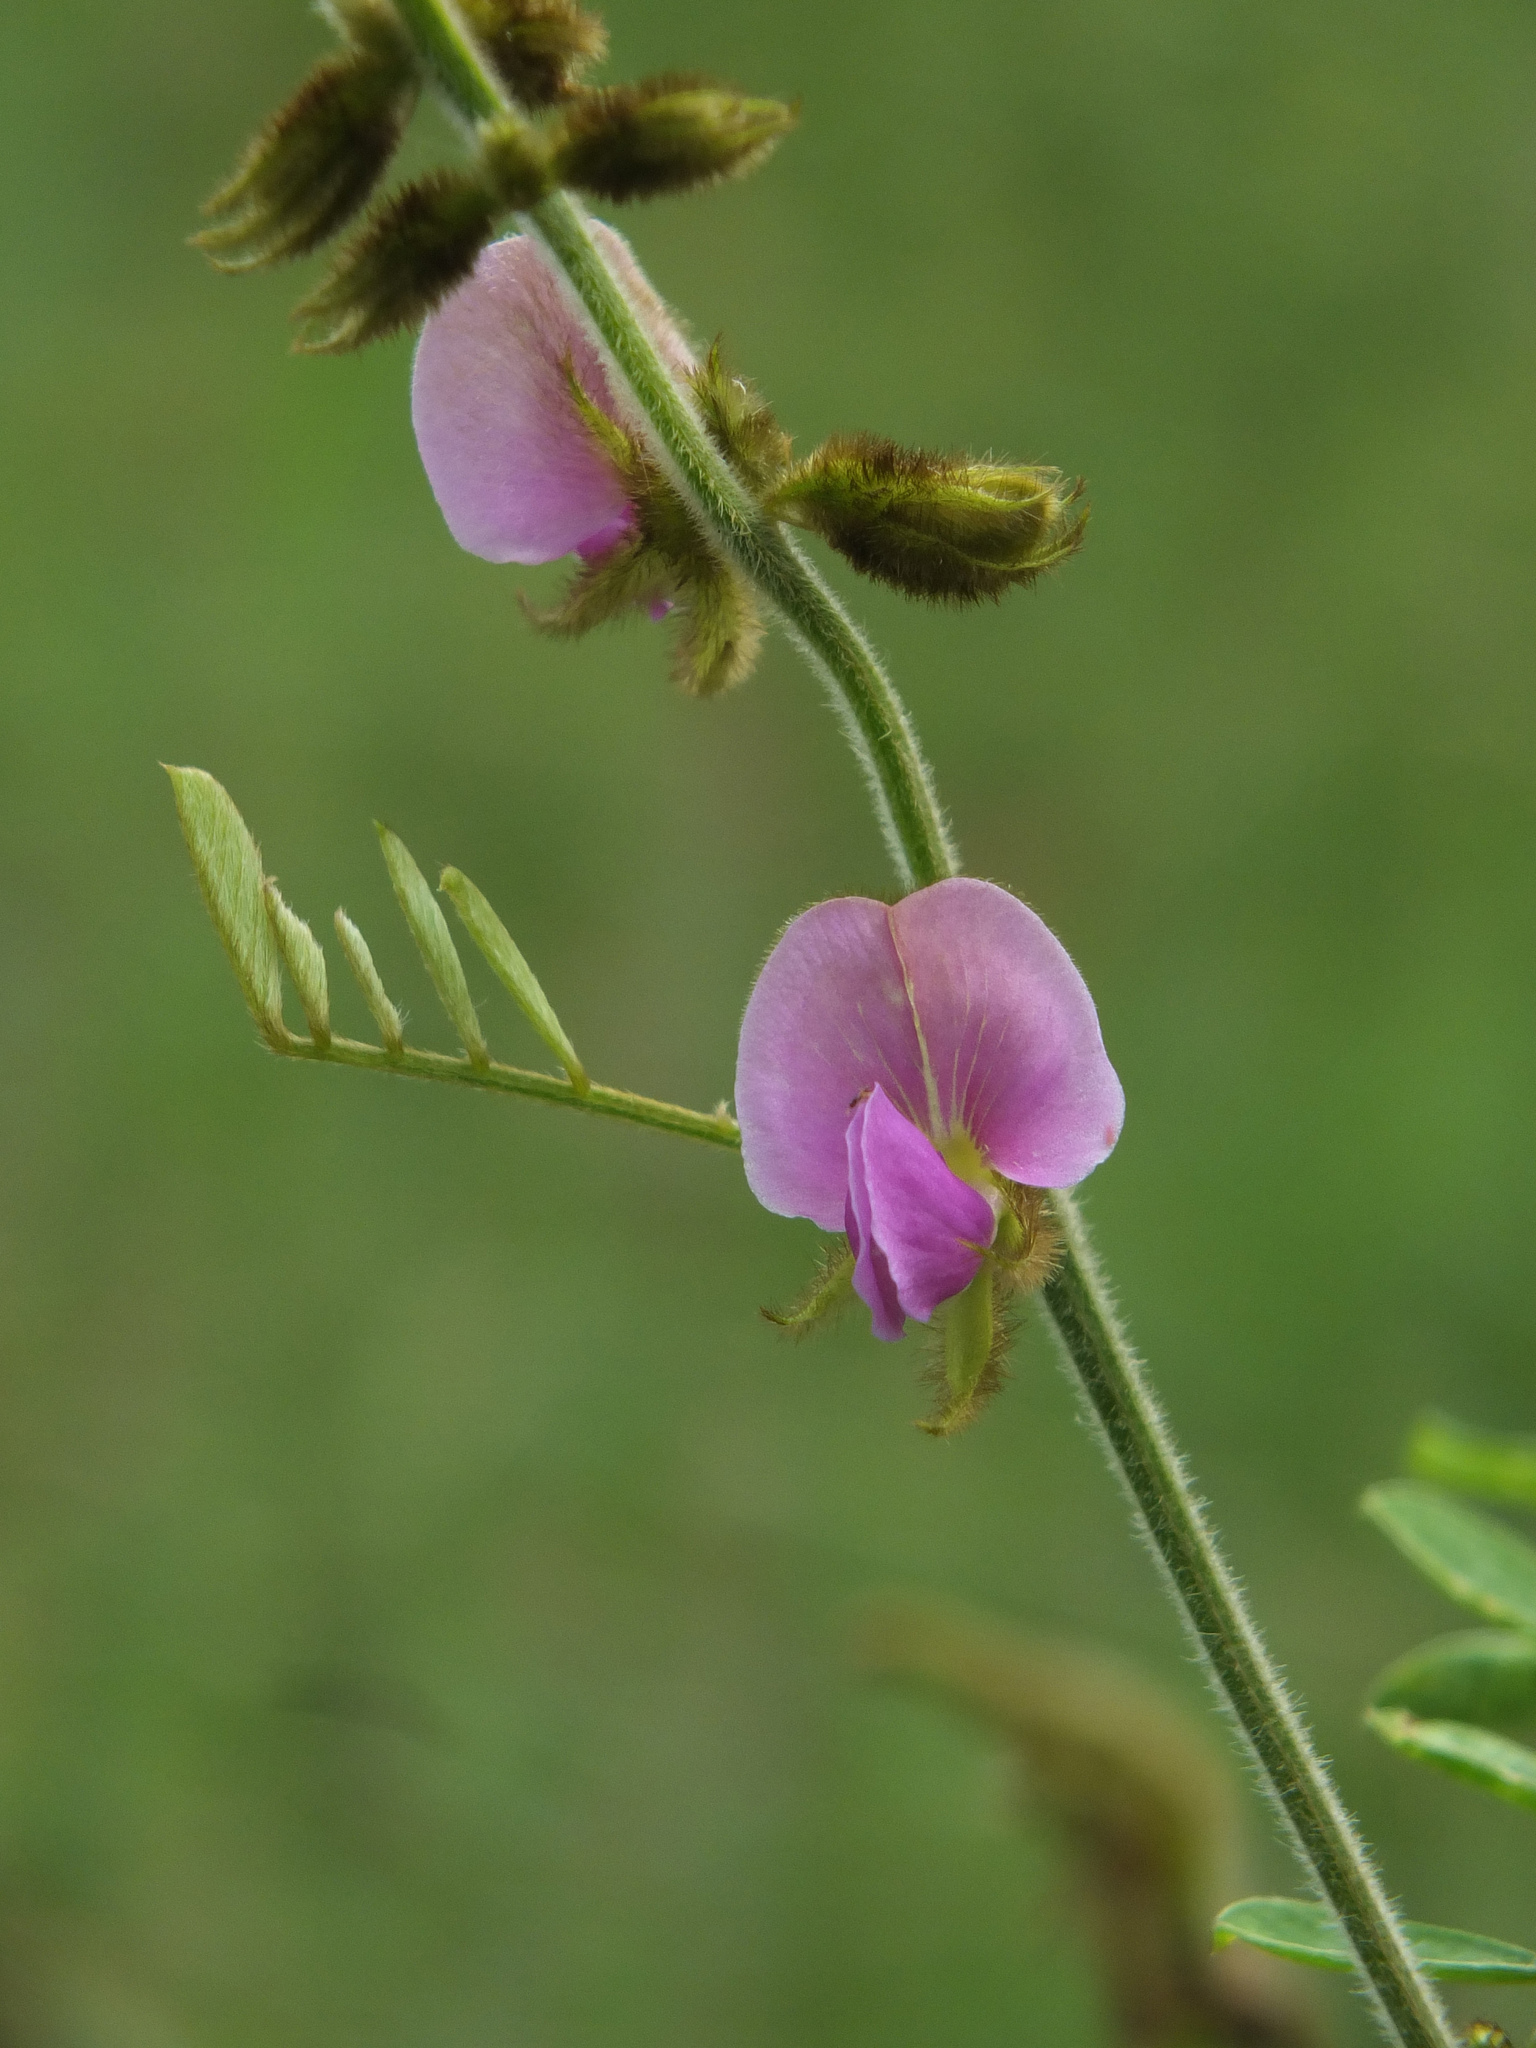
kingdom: Plantae
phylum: Tracheophyta
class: Magnoliopsida
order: Fabales
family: Fabaceae
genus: Tephrosia
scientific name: Tephrosia villosa
